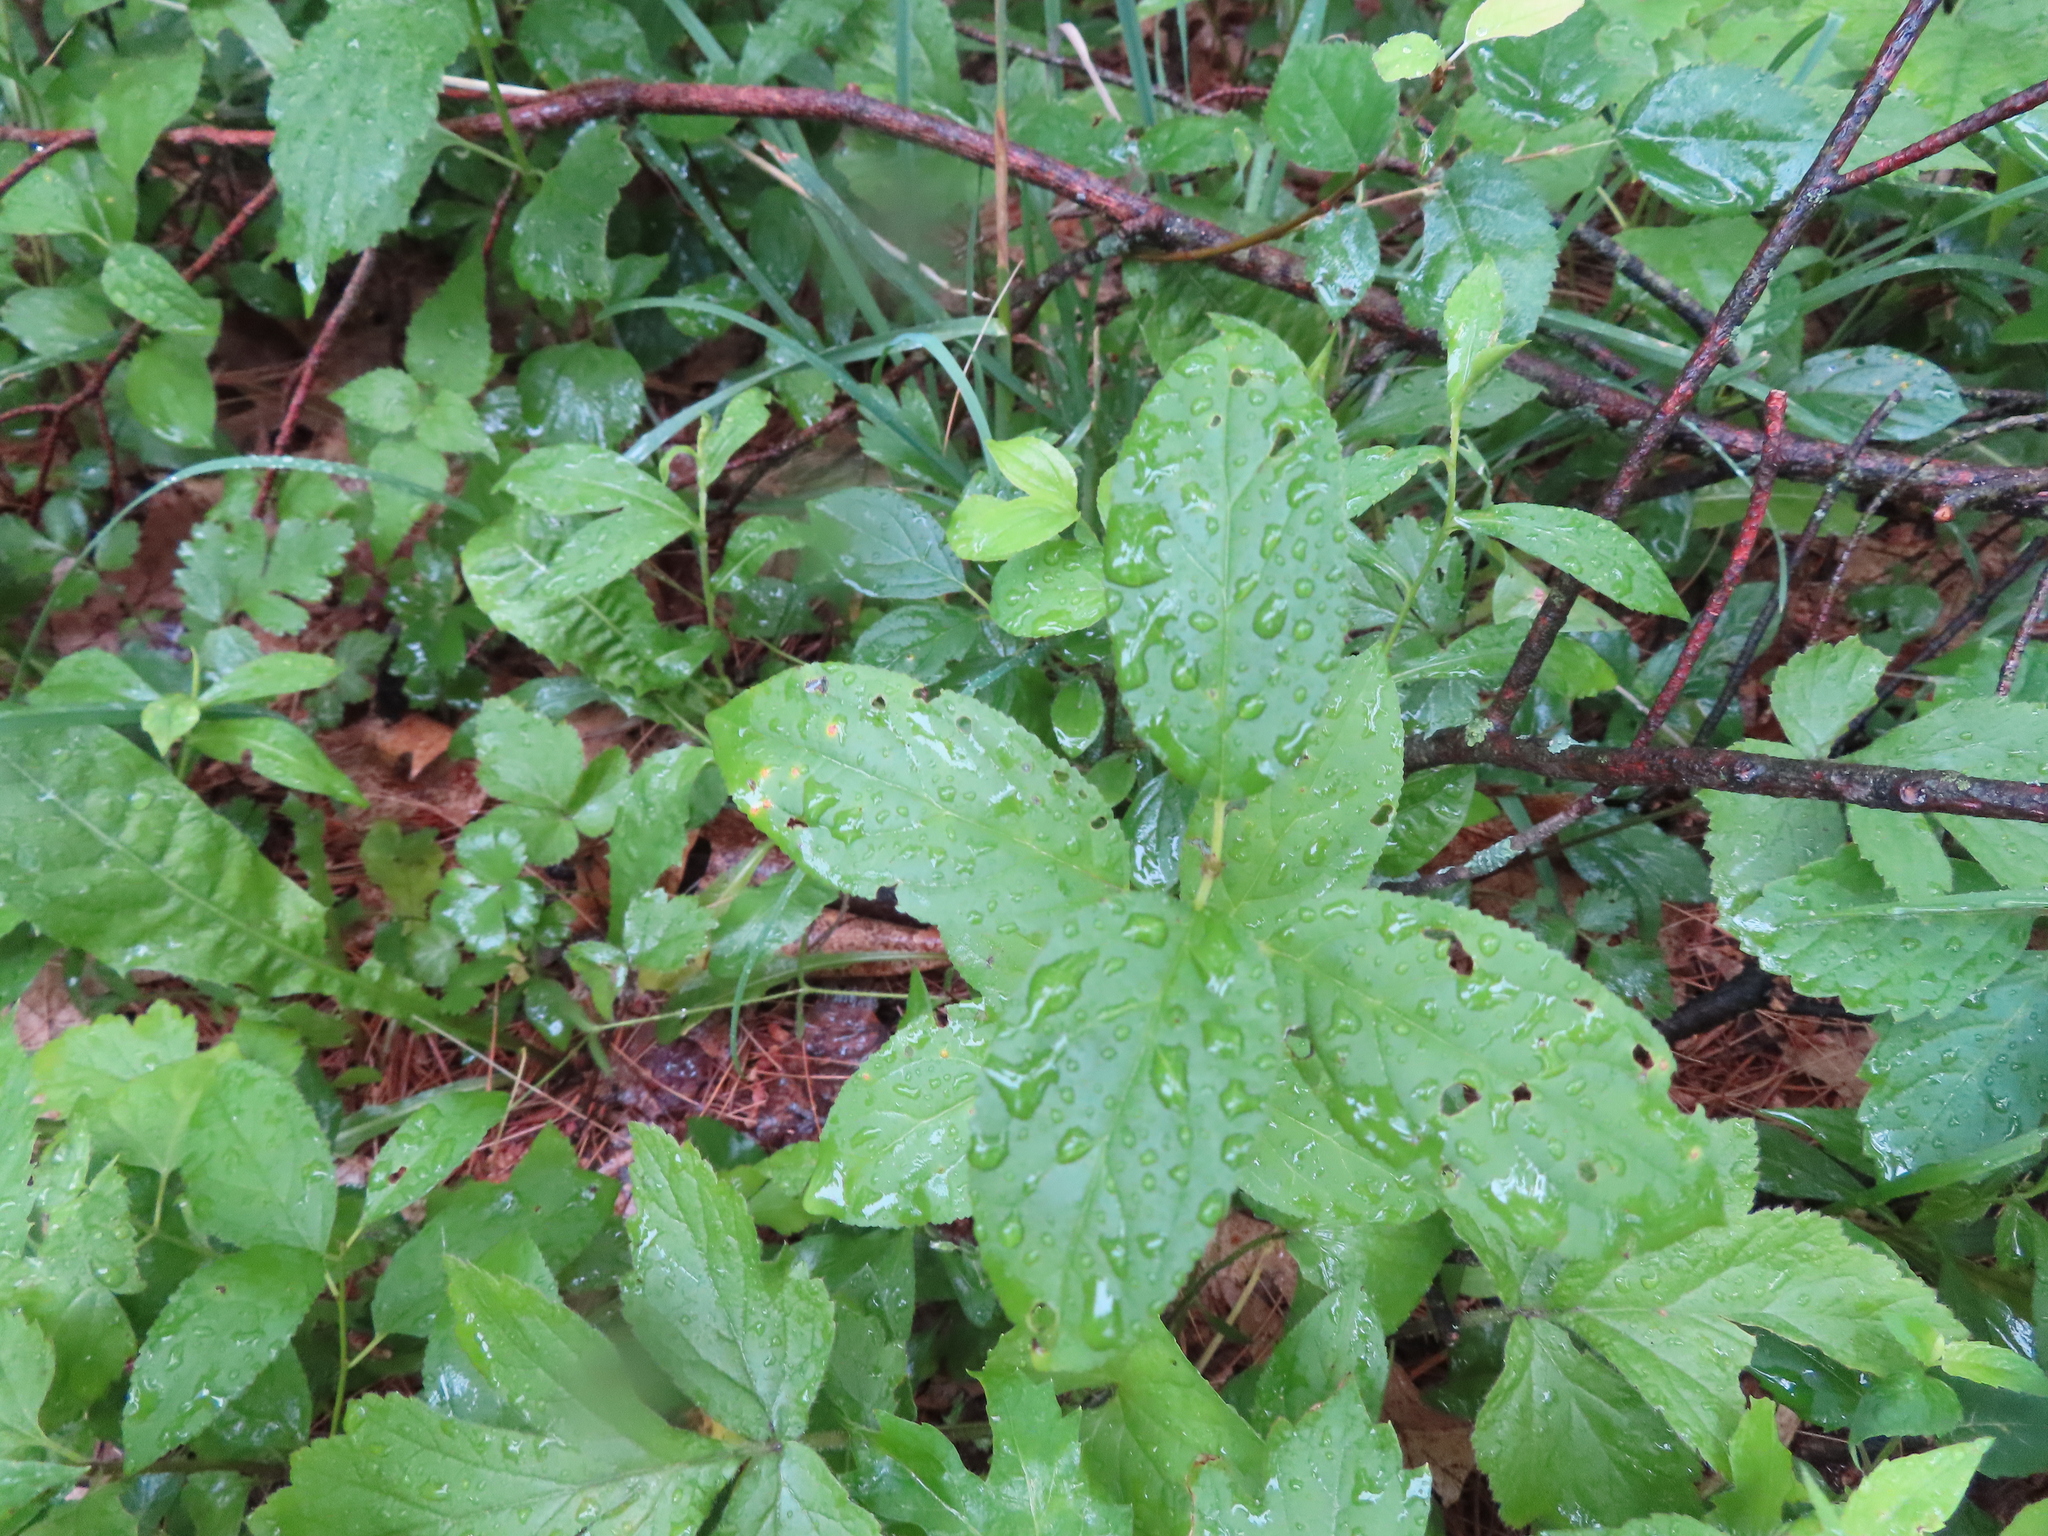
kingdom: Plantae
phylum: Tracheophyta
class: Magnoliopsida
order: Rosales
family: Rhamnaceae
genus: Rhamnus
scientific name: Rhamnus cathartica
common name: Common buckthorn
